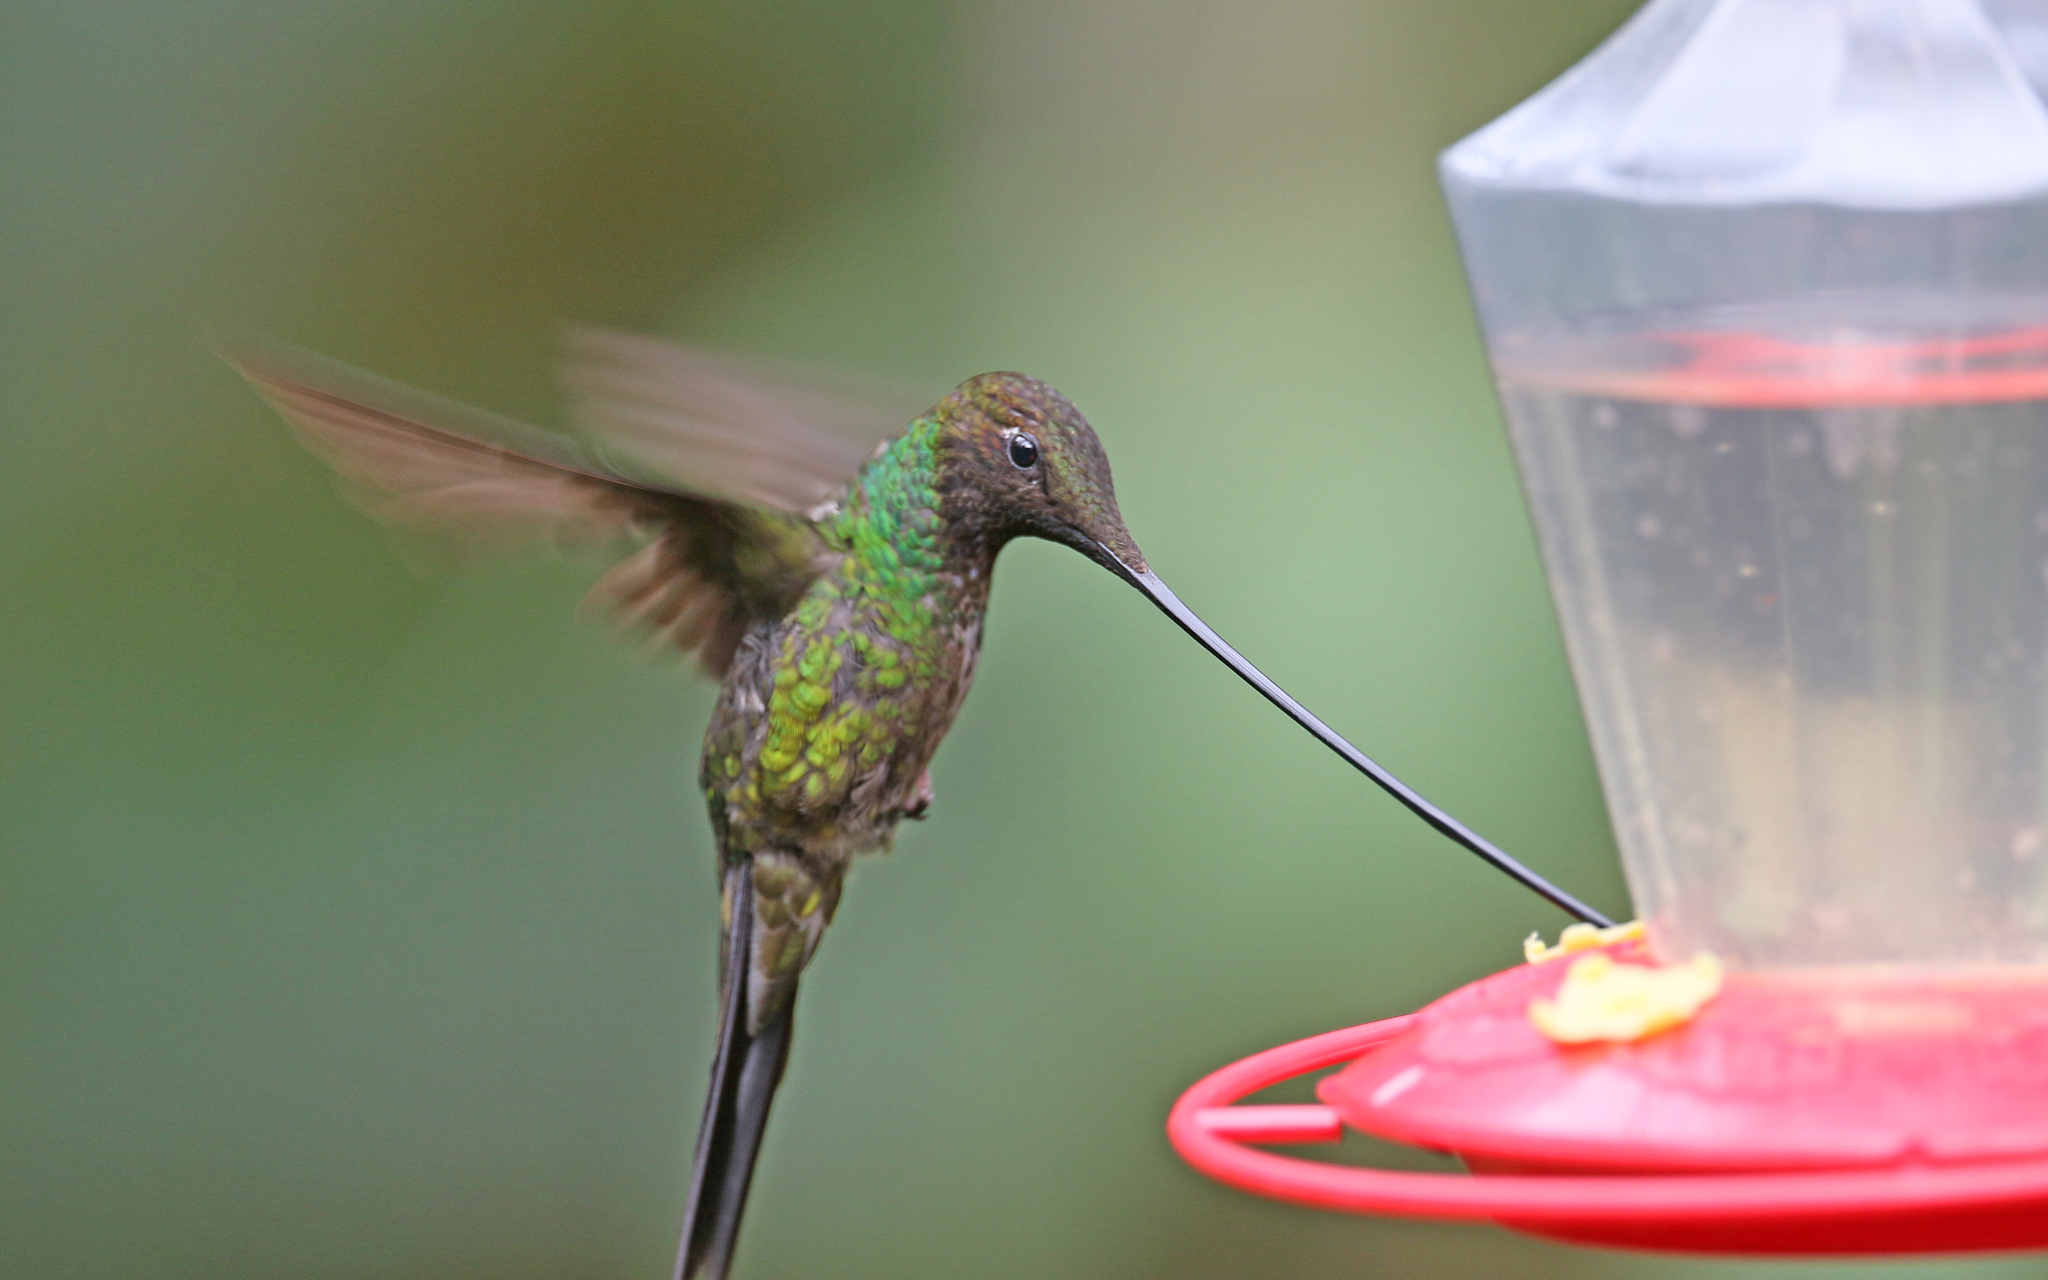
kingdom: Animalia
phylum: Chordata
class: Aves
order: Apodiformes
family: Trochilidae
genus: Ensifera
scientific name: Ensifera ensifera
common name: Sword-billed hummingbird
